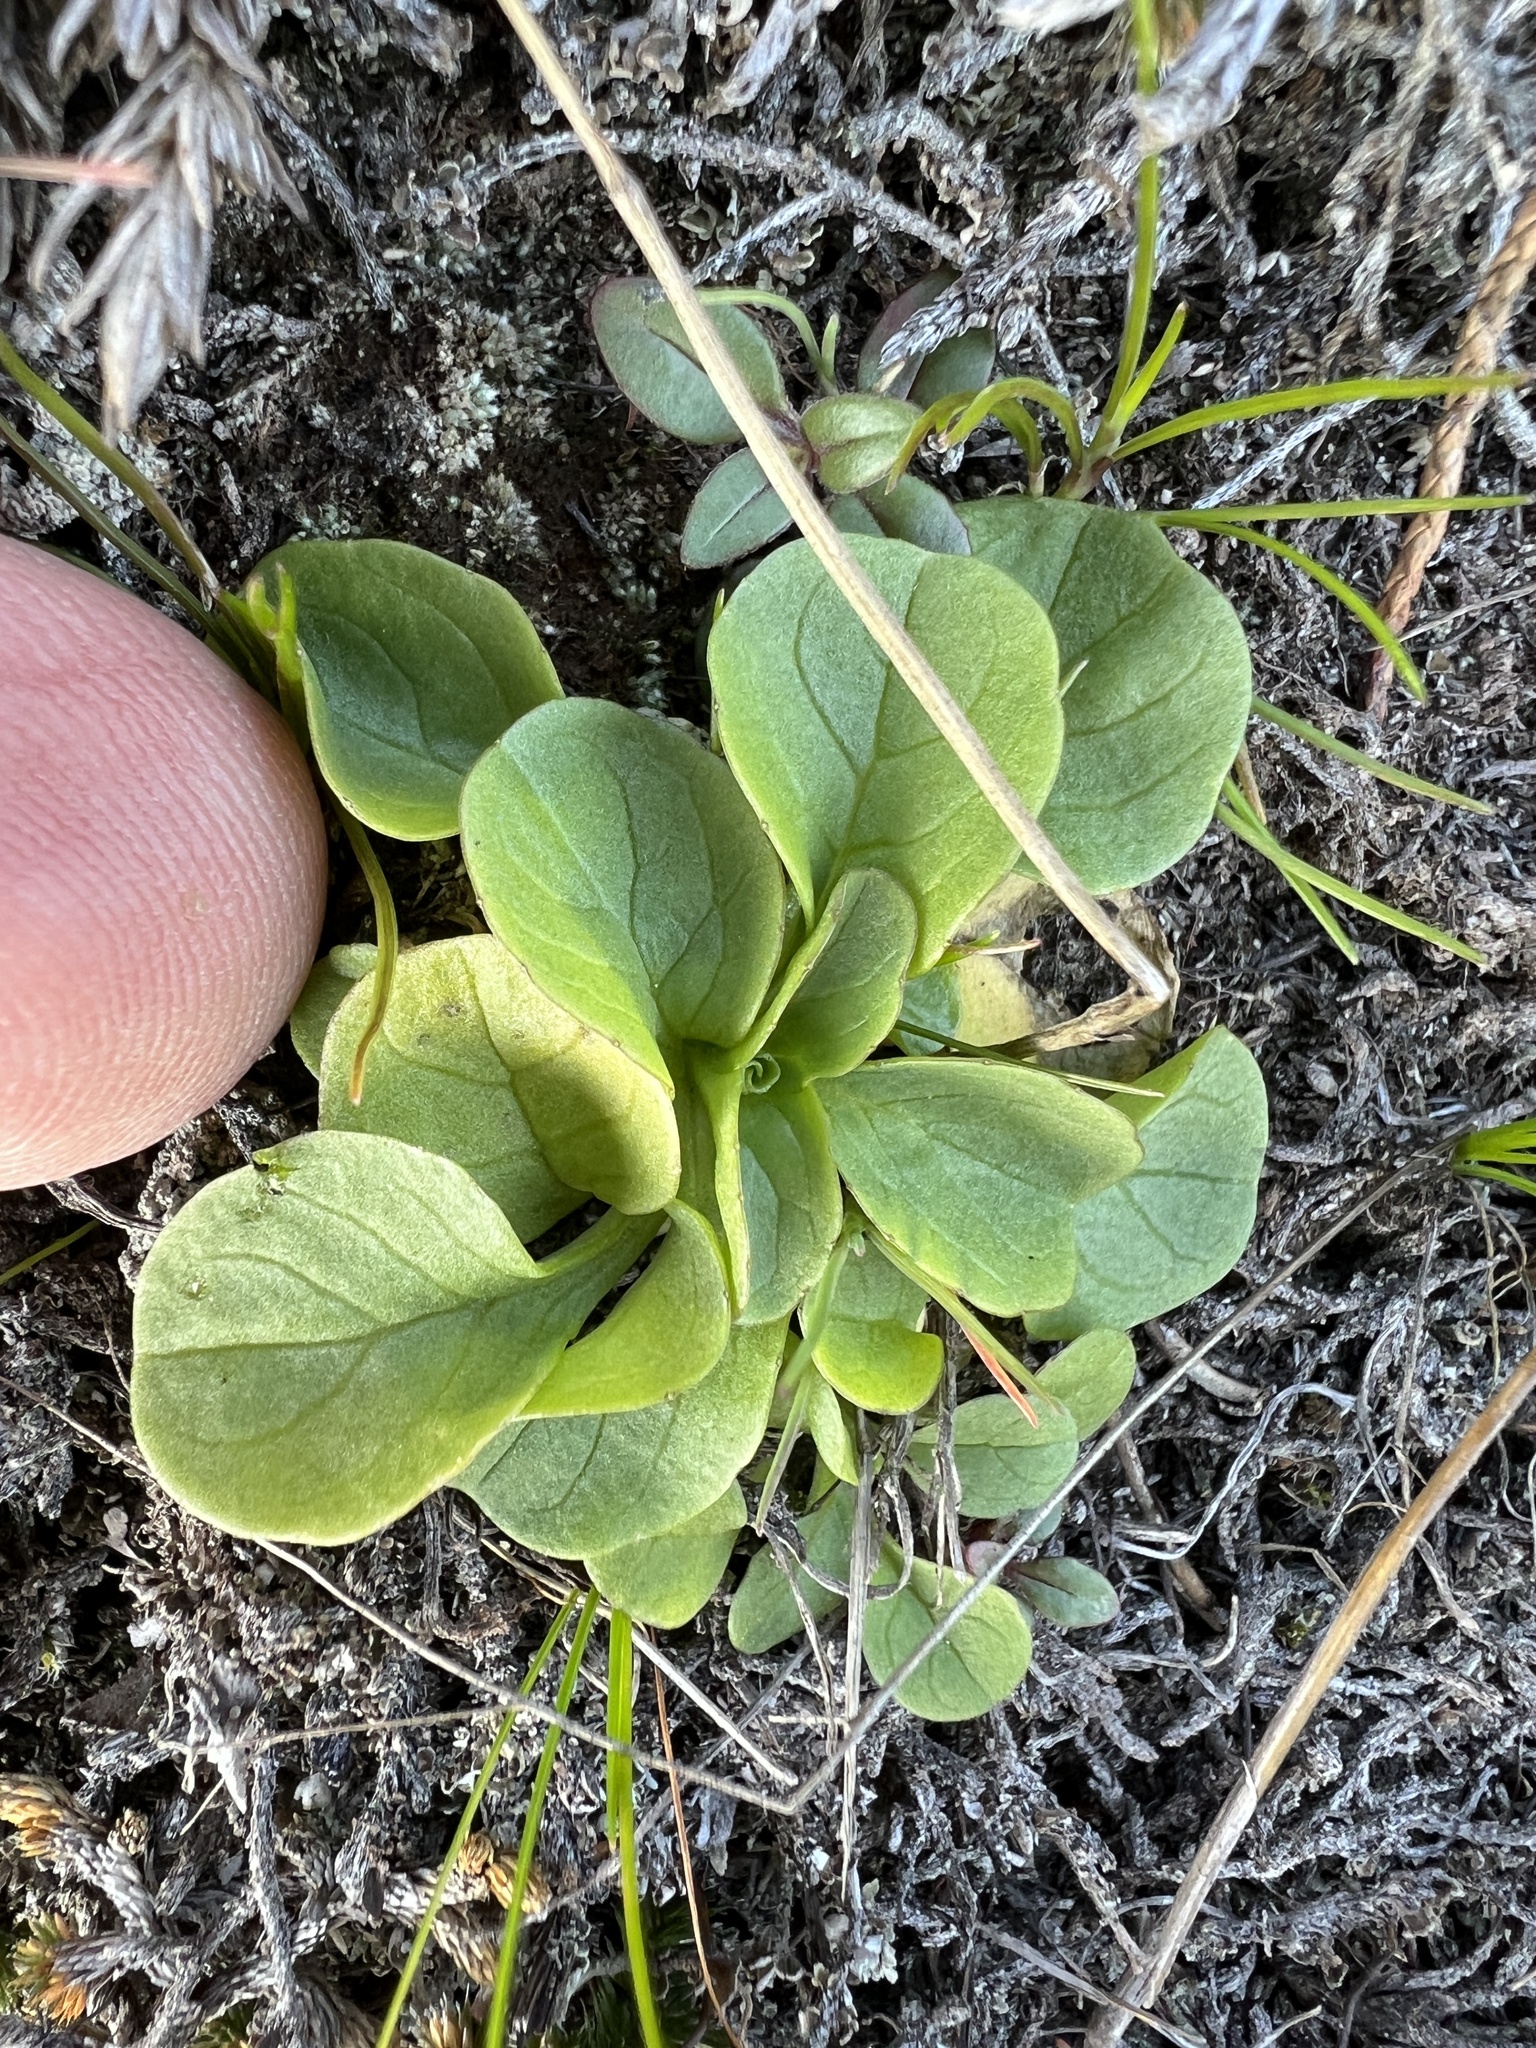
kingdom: Plantae
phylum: Tracheophyta
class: Magnoliopsida
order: Dipsacales
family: Caprifoliaceae
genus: Plectritis
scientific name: Plectritis congesta
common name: Pink plectritis
